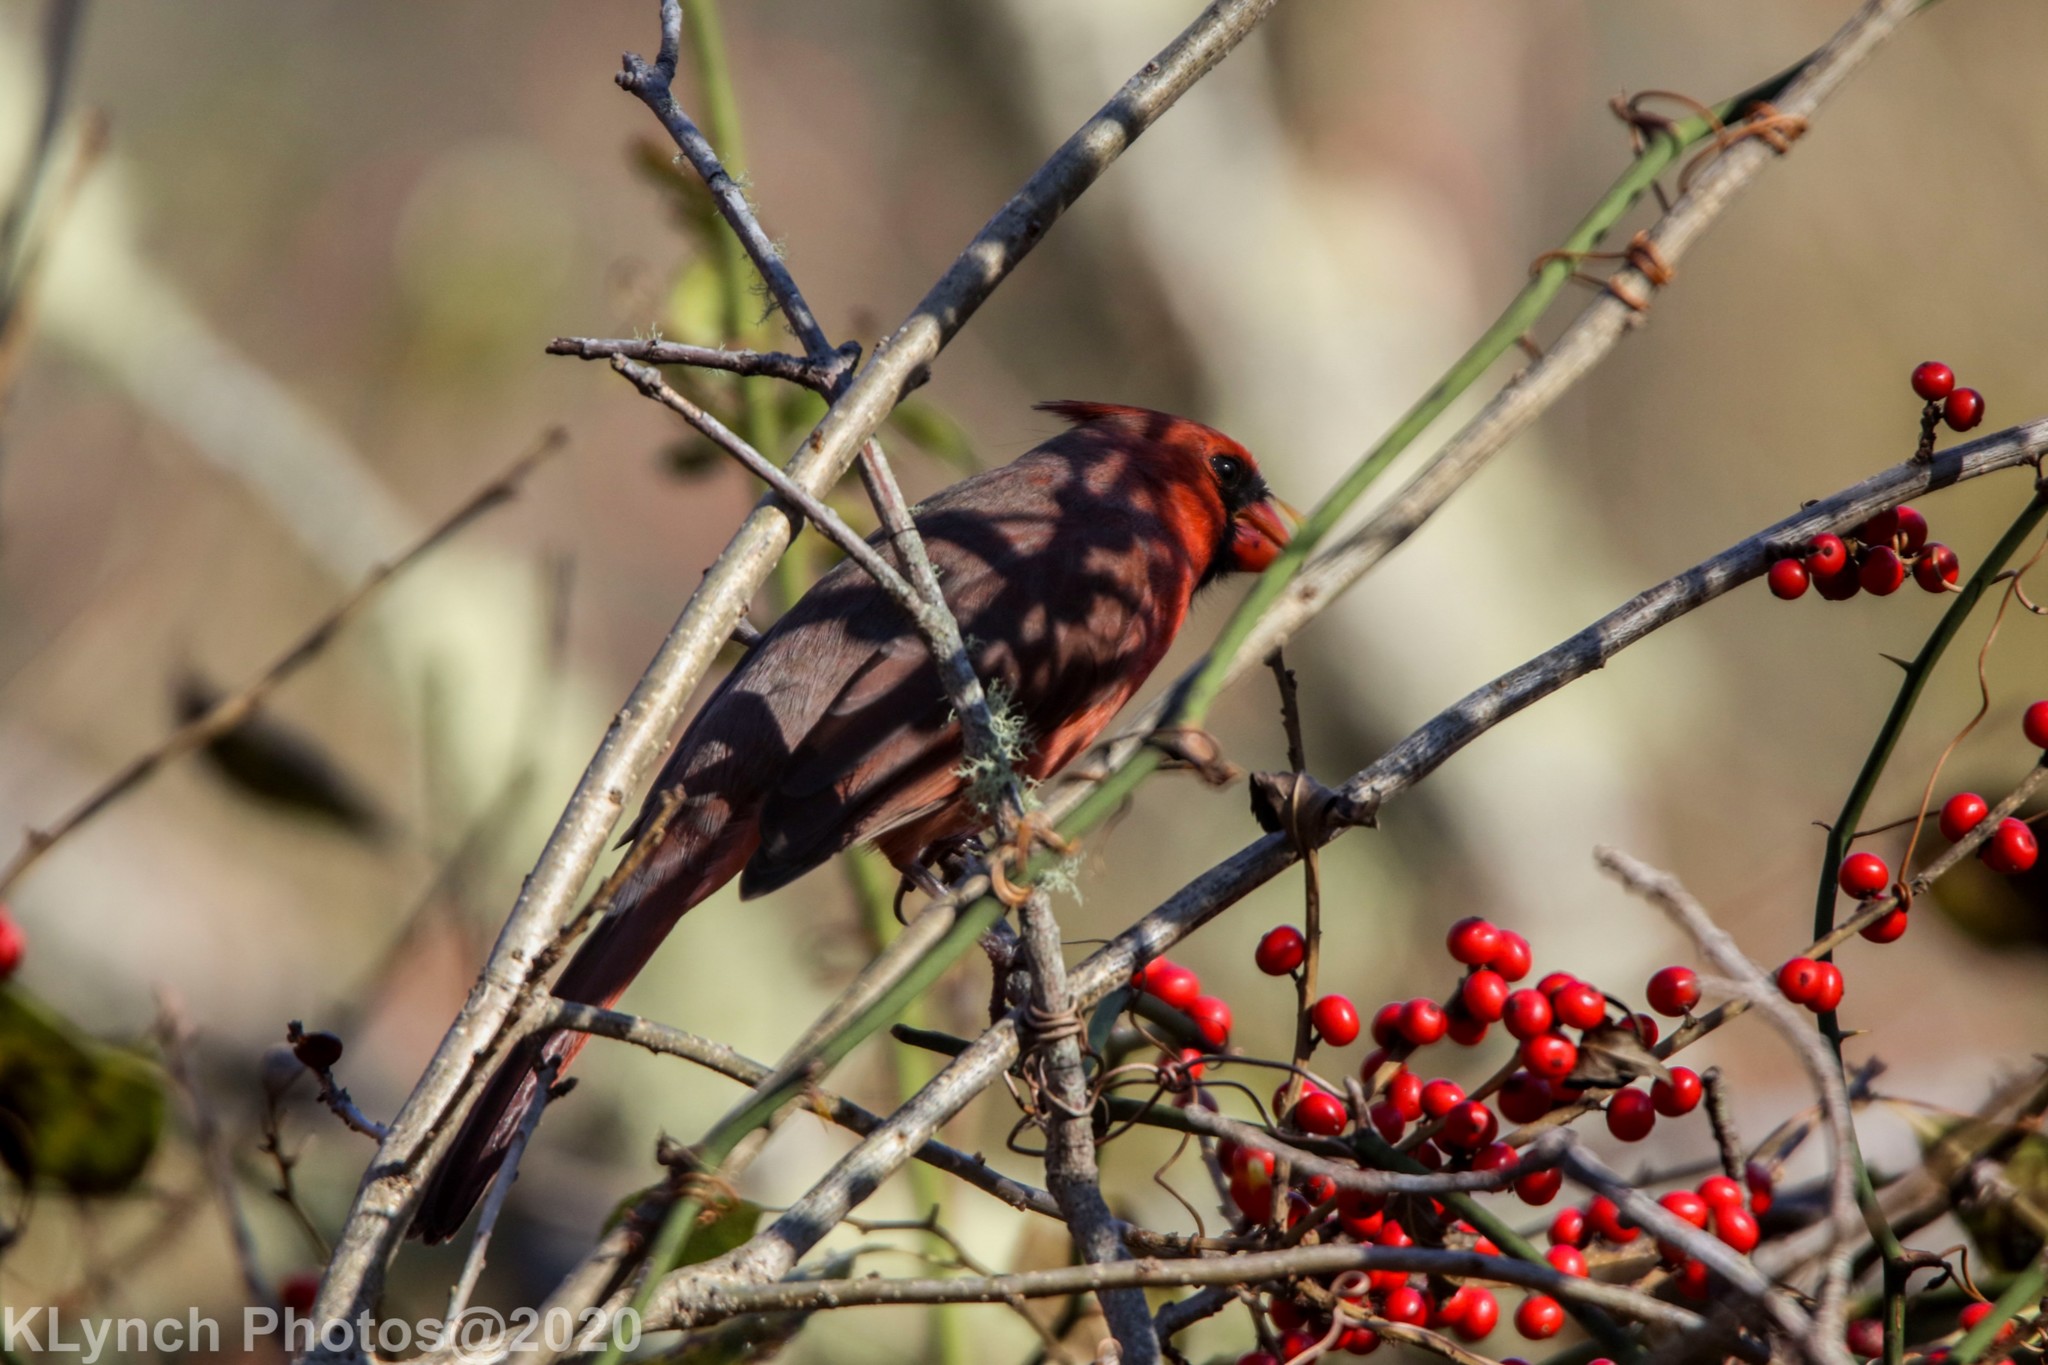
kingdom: Animalia
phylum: Chordata
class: Aves
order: Passeriformes
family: Cardinalidae
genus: Cardinalis
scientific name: Cardinalis cardinalis
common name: Northern cardinal
